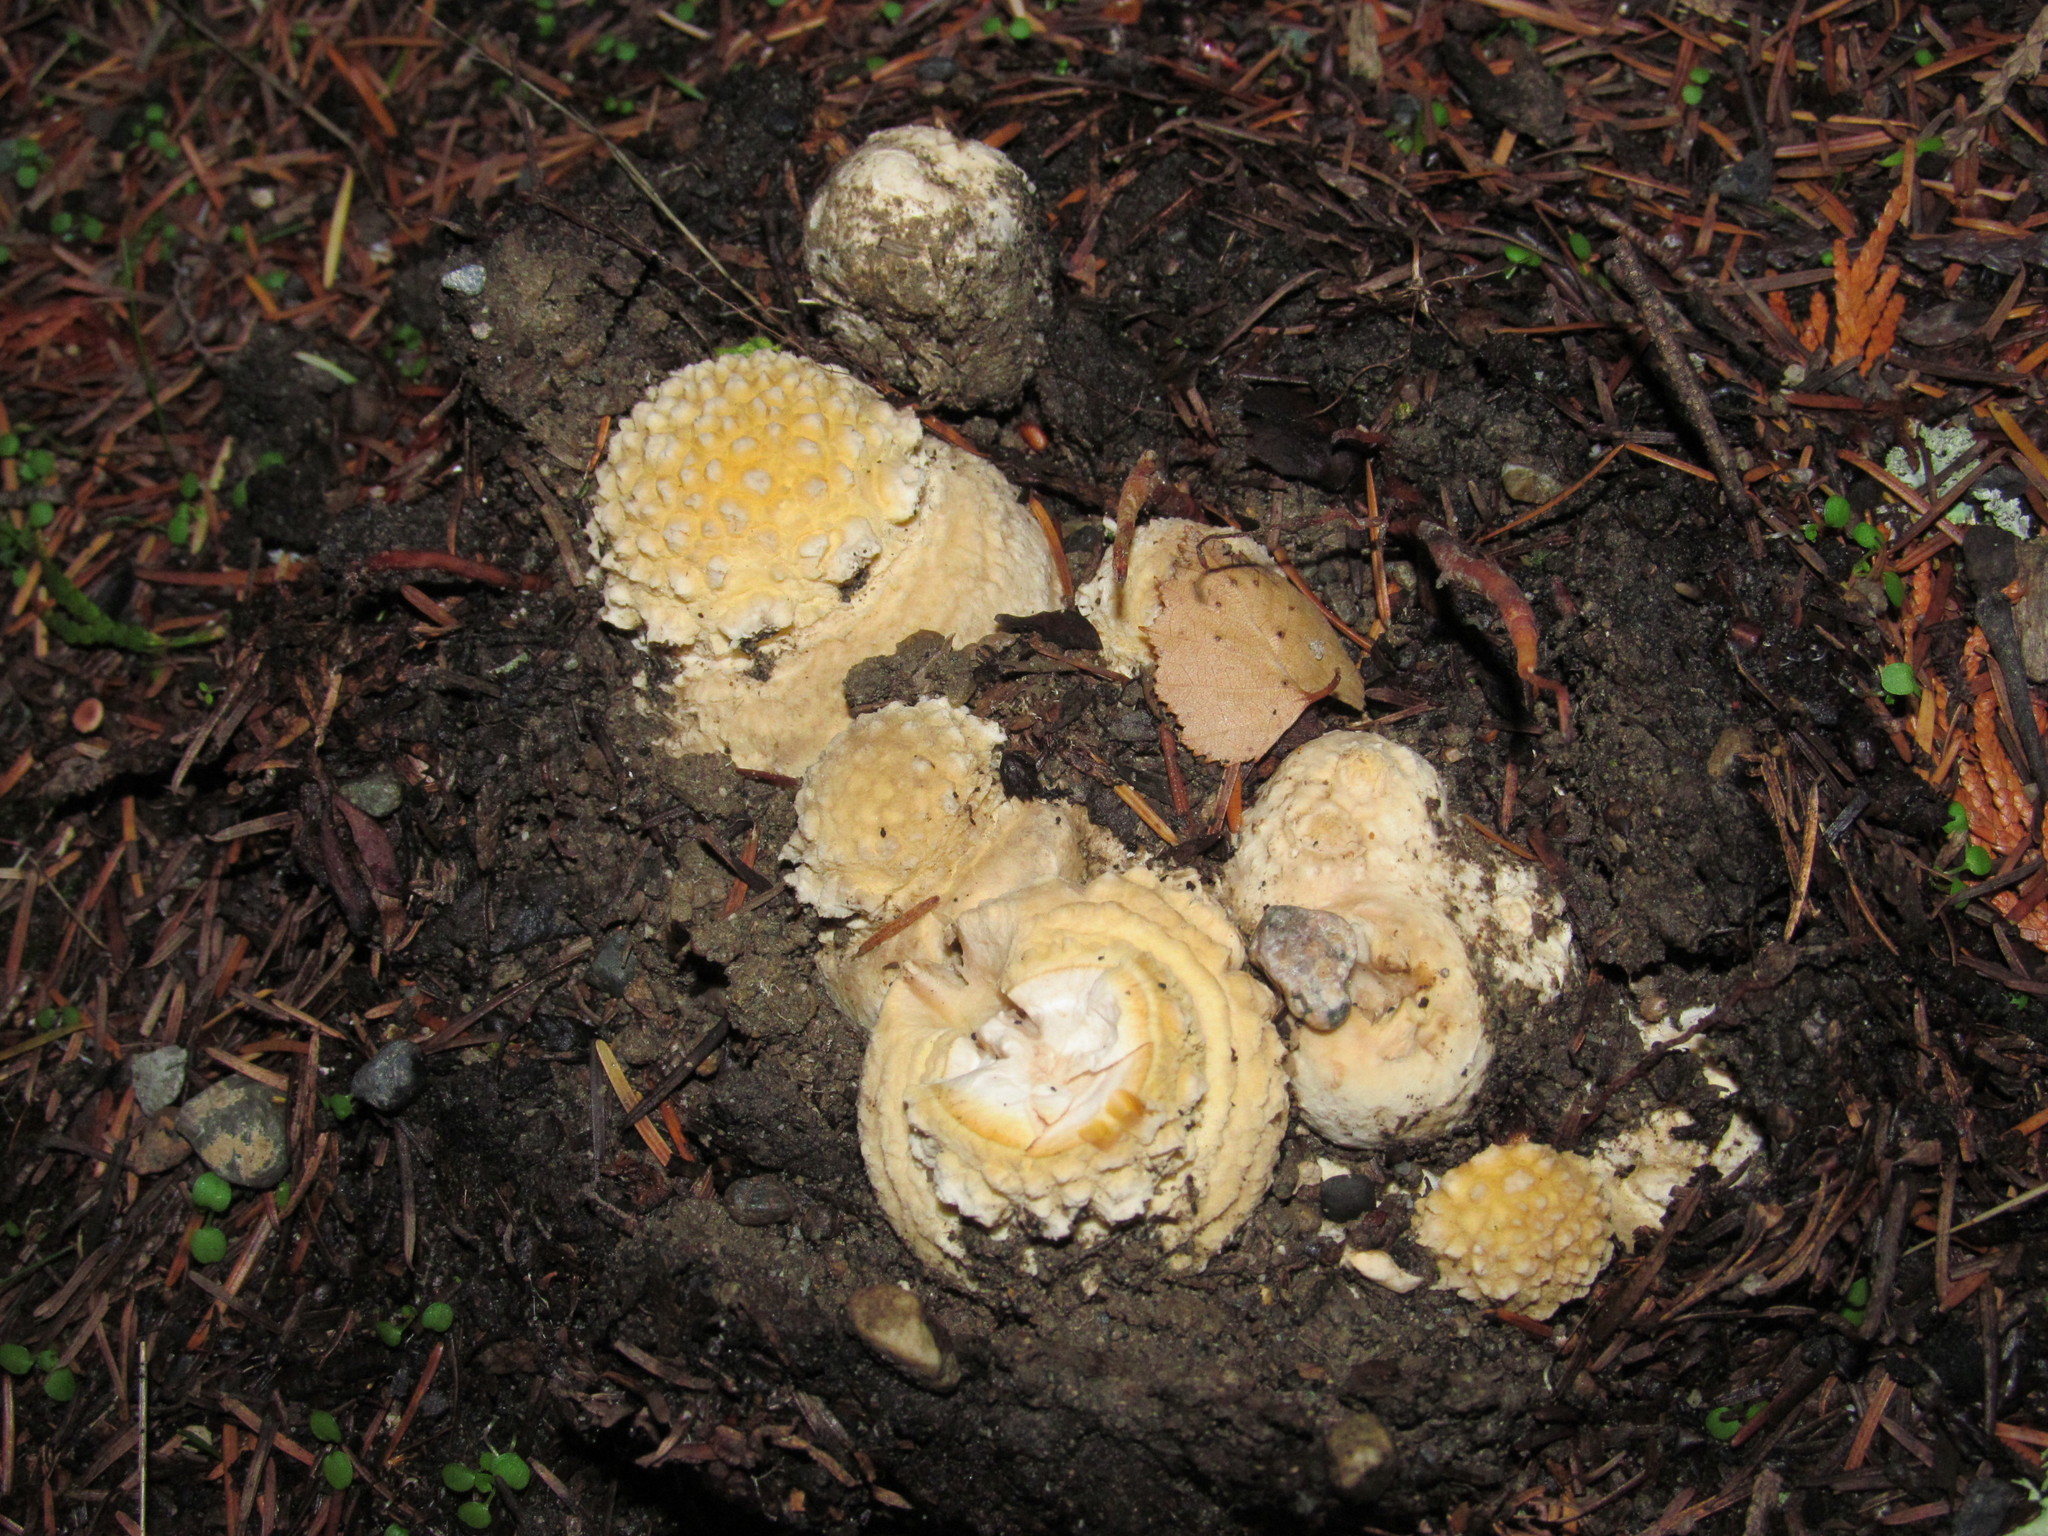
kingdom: Fungi
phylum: Basidiomycota
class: Agaricomycetes
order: Agaricales
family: Amanitaceae
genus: Amanita
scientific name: Amanita muscaria
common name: Fly agaric
